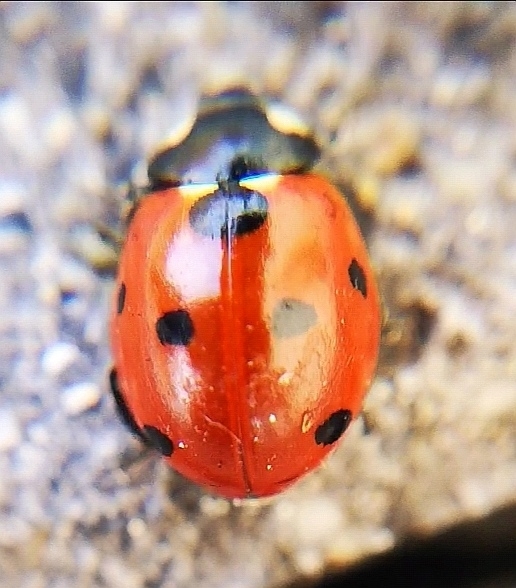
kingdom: Animalia
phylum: Arthropoda
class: Insecta
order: Coleoptera
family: Coccinellidae
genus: Coccinella
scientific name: Coccinella septempunctata
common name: Sevenspotted lady beetle
